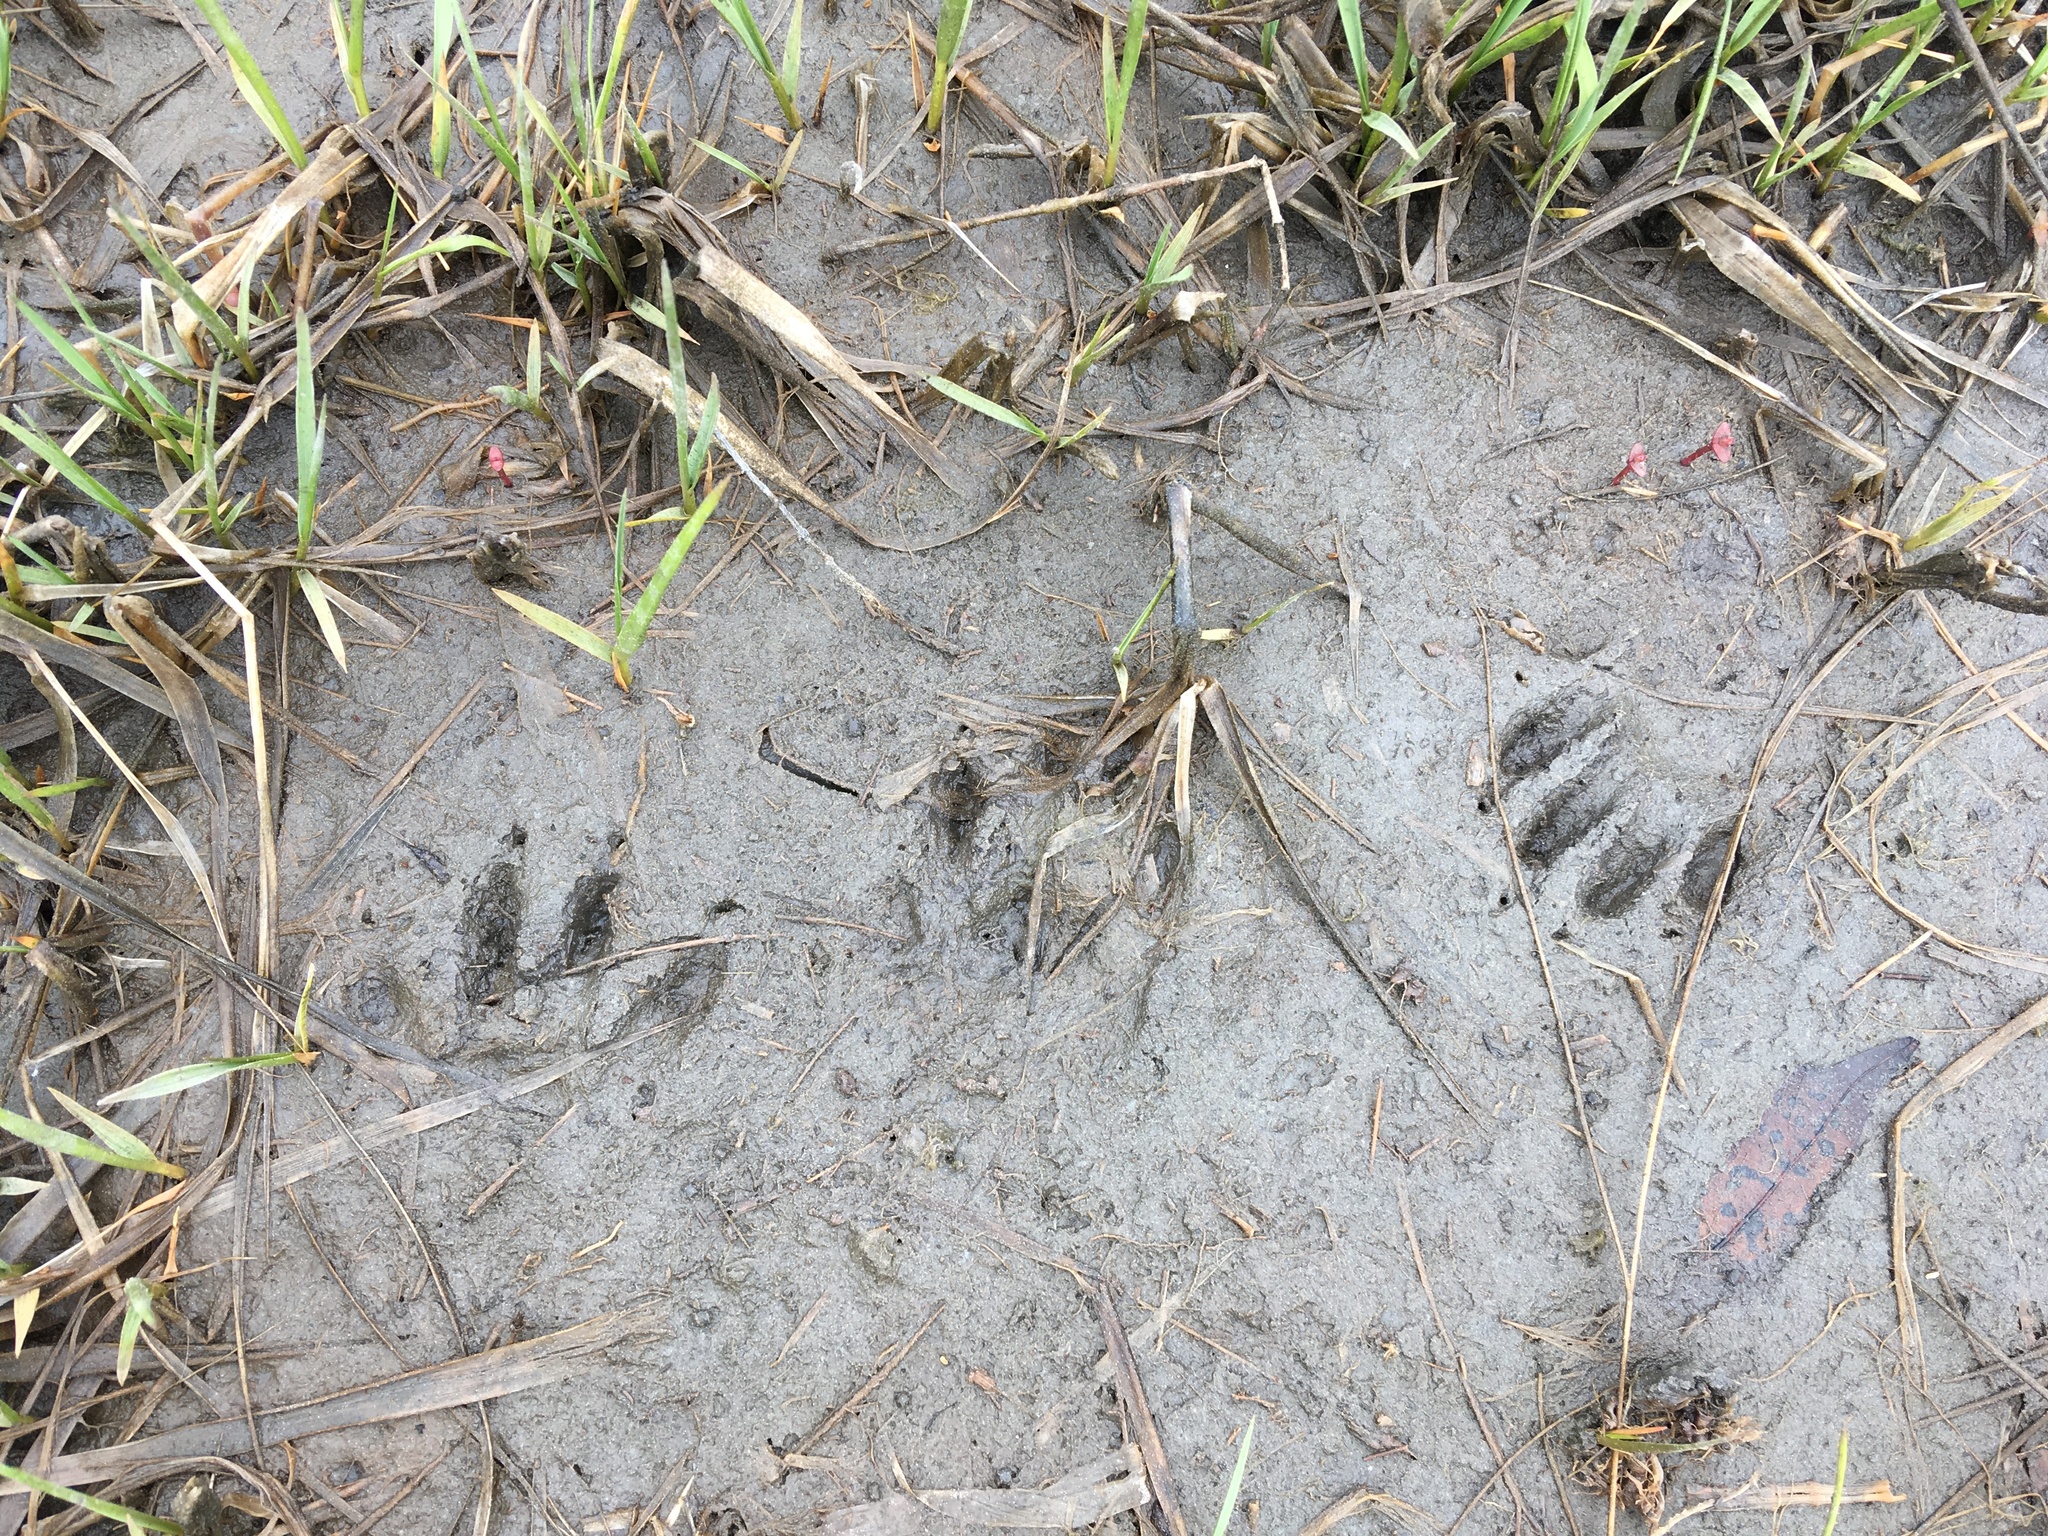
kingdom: Animalia
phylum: Chordata
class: Mammalia
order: Carnivora
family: Procyonidae
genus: Procyon
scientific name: Procyon lotor
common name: Raccoon
